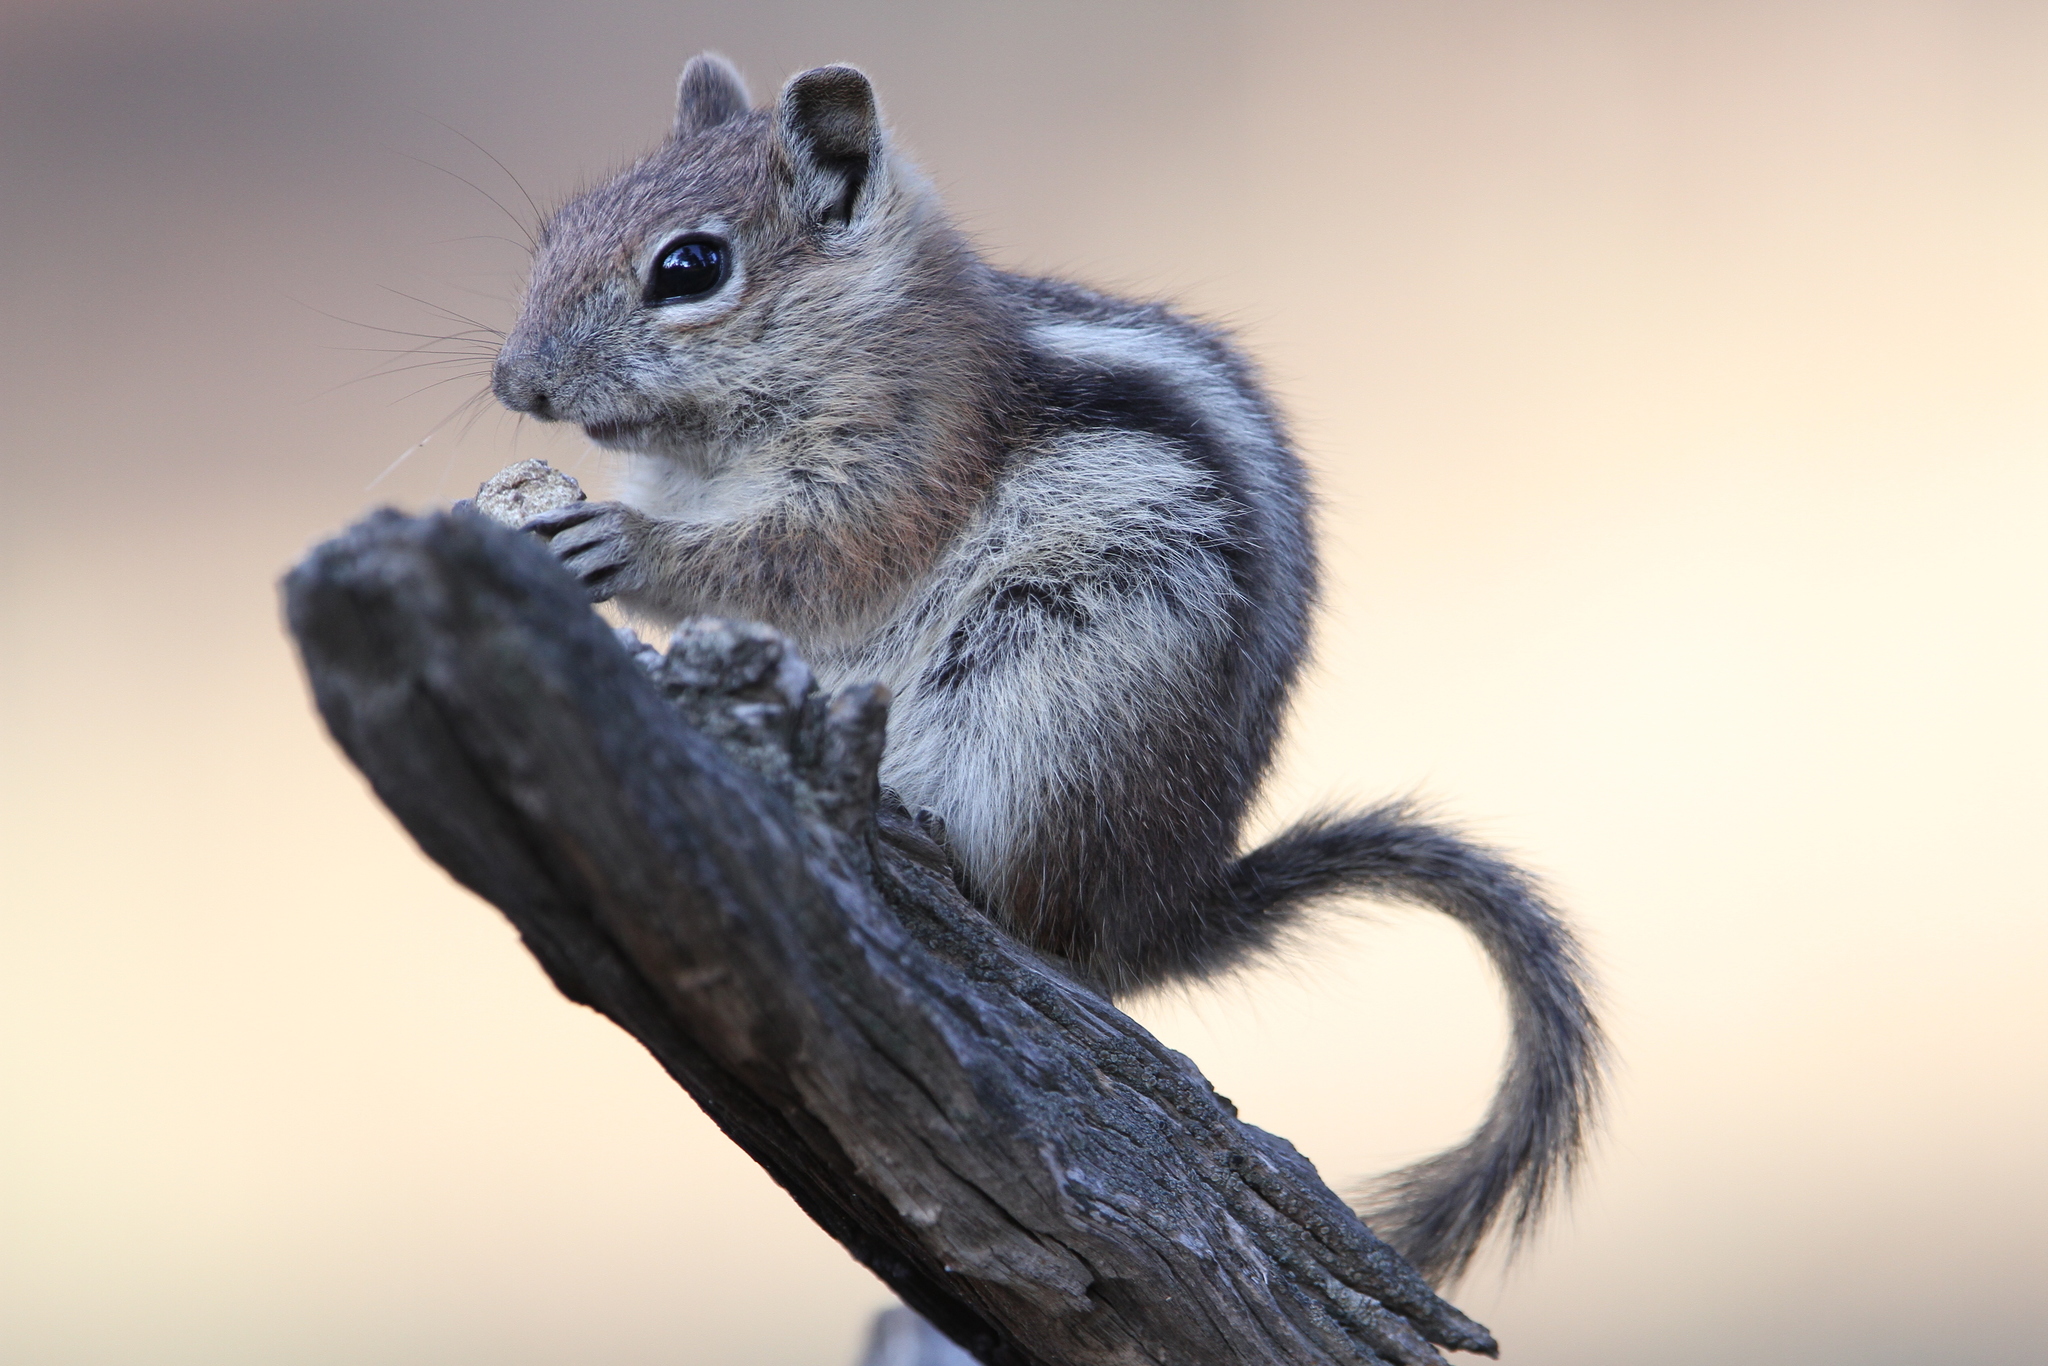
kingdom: Animalia
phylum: Chordata
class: Mammalia
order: Rodentia
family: Sciuridae
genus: Callospermophilus
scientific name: Callospermophilus lateralis
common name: Golden-mantled ground squirrel
